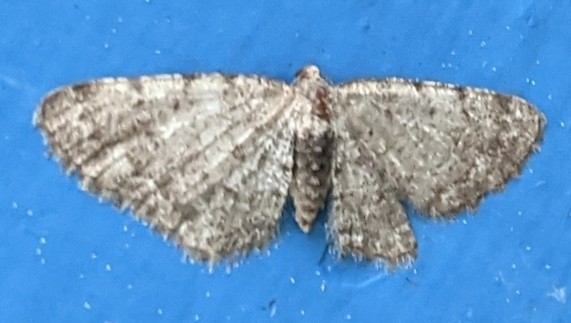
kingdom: Animalia
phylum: Arthropoda
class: Insecta
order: Lepidoptera
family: Geometridae
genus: Aethalura
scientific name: Aethalura intertexta
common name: Four-barred gray
